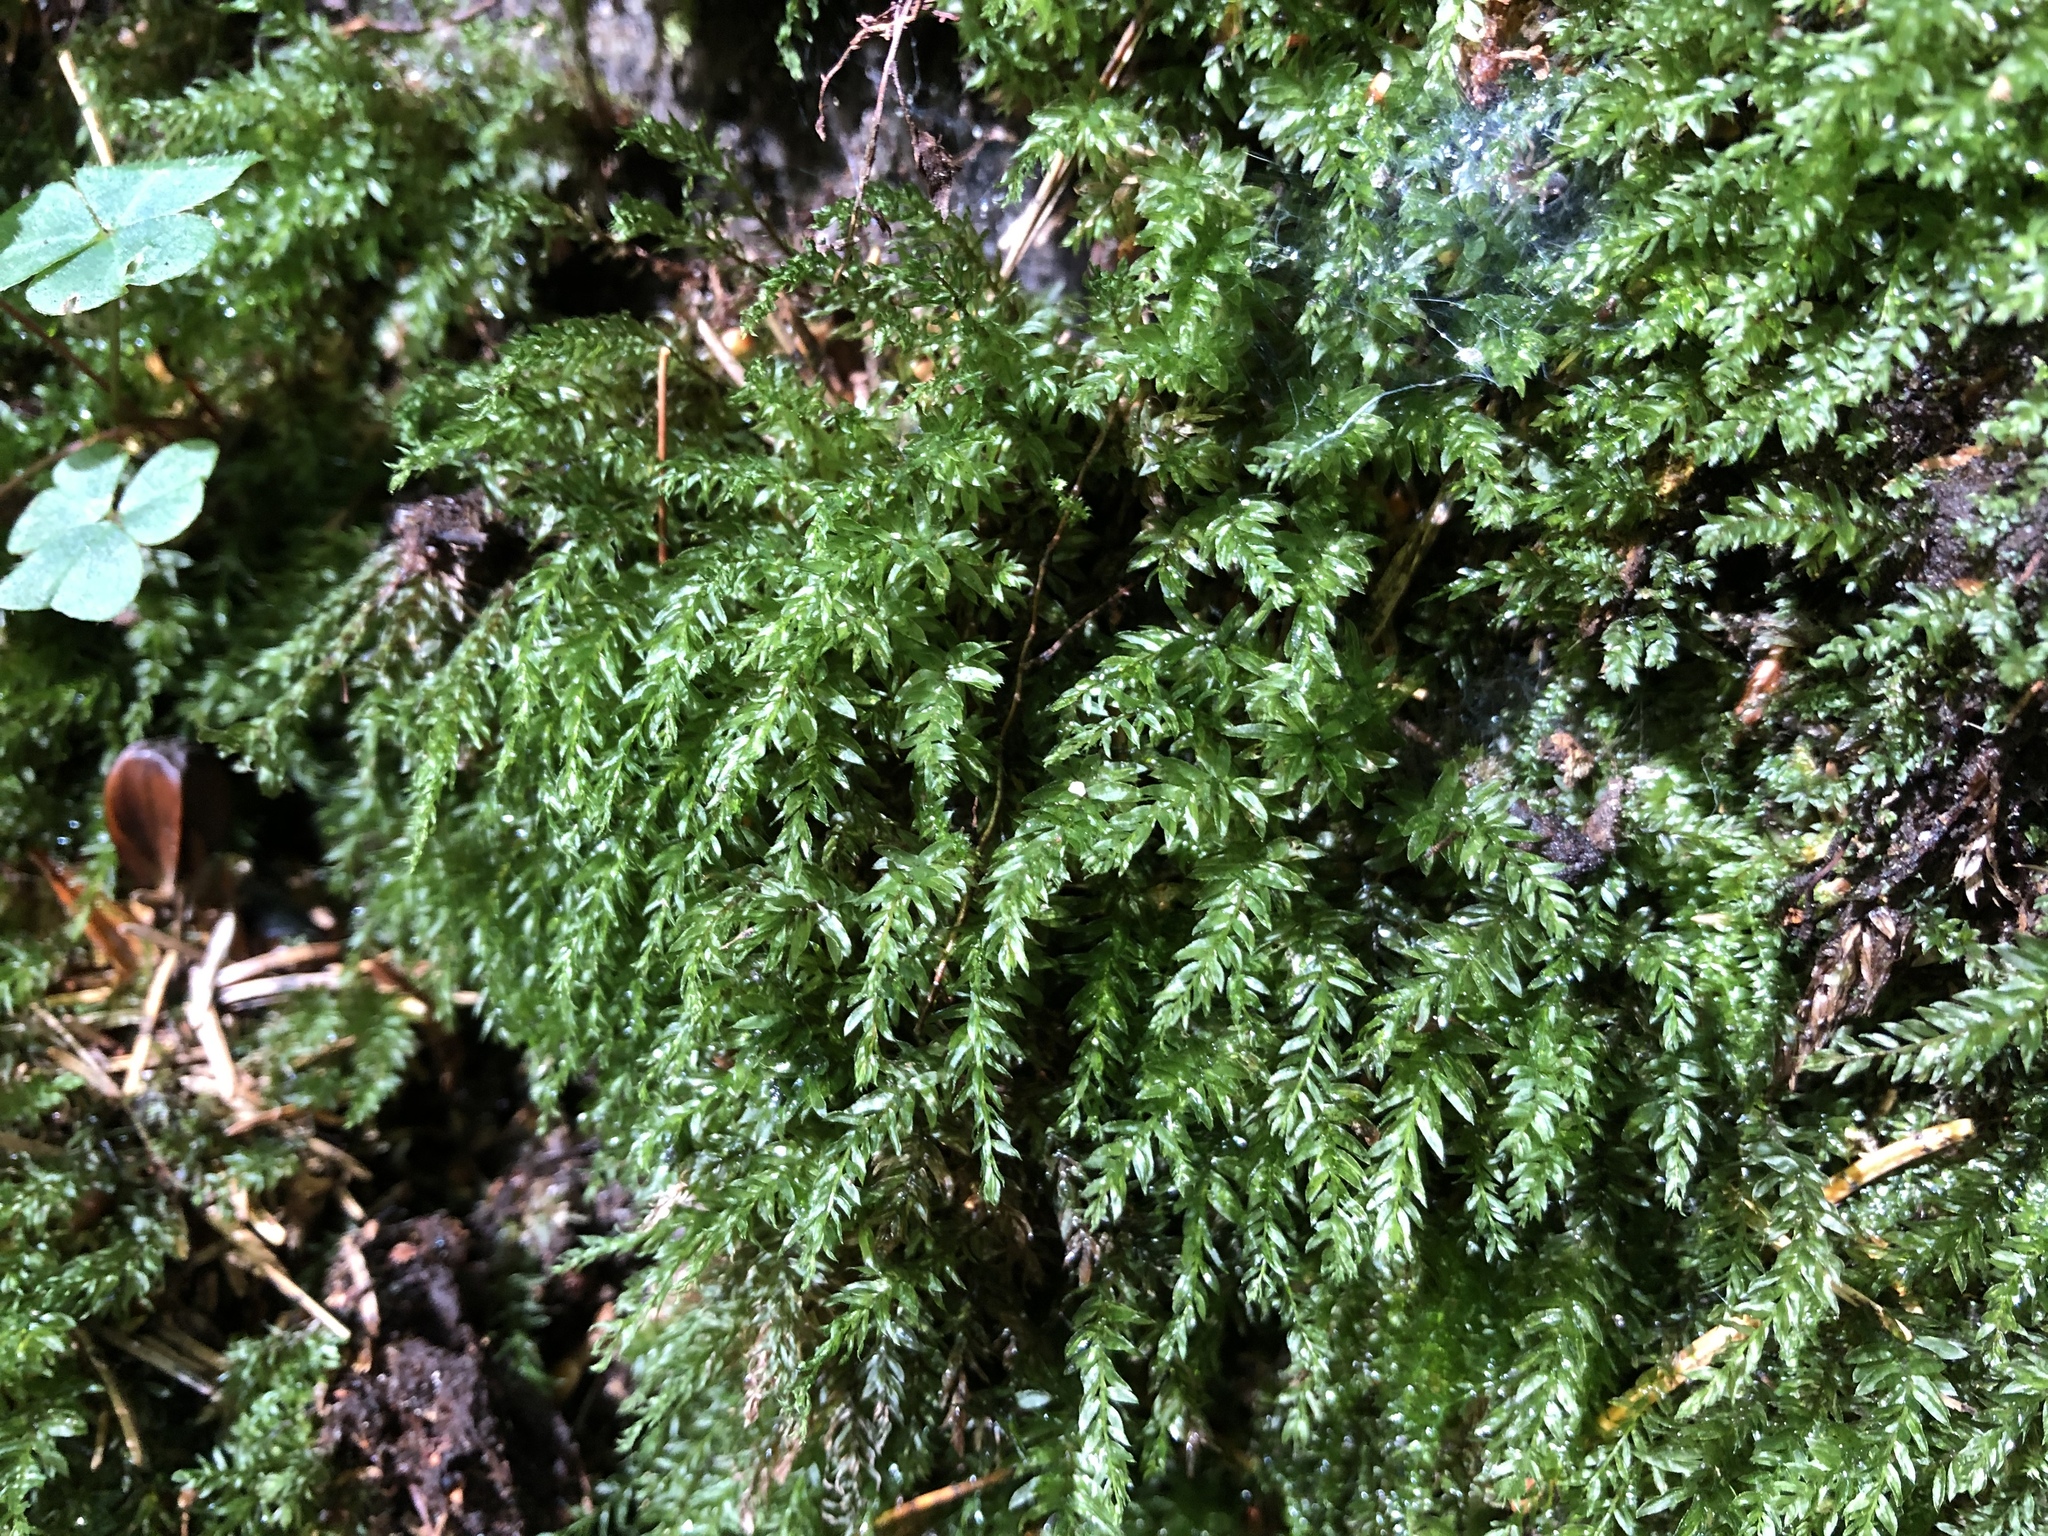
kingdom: Plantae
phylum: Bryophyta
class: Bryopsida
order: Bryales
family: Mniaceae
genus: Mnium
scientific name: Mnium hornum
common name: Swan's-neck leafy moss
